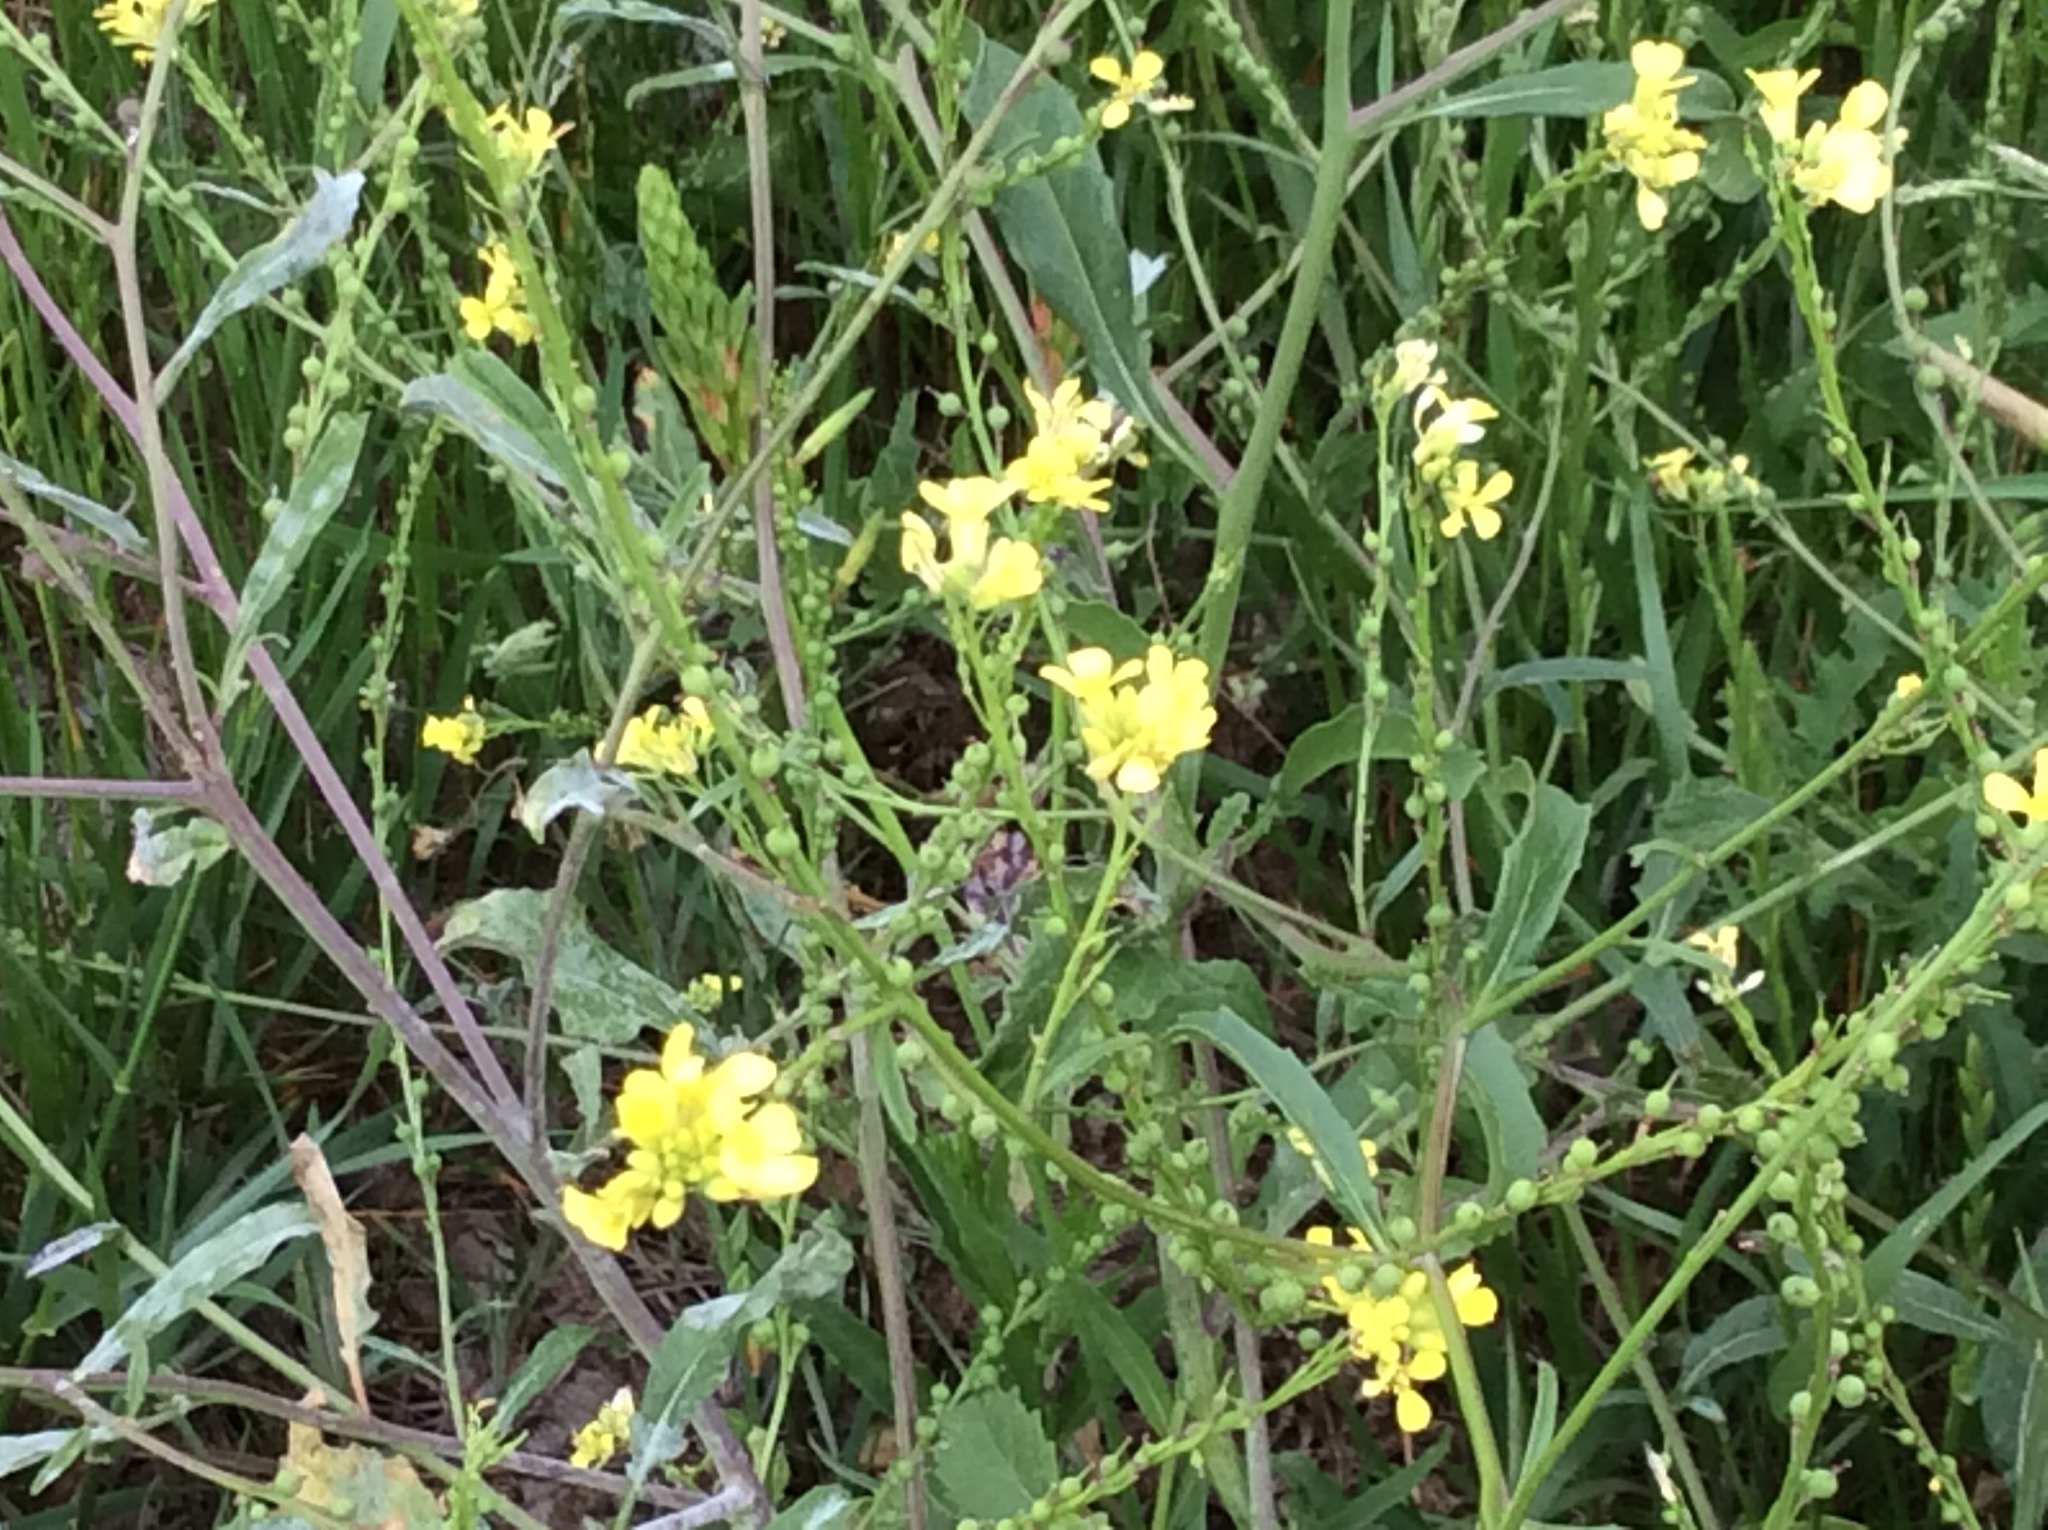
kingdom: Plantae
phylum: Tracheophyta
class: Magnoliopsida
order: Brassicales
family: Brassicaceae
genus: Rapistrum
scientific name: Rapistrum rugosum
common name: Annual bastardcabbage
